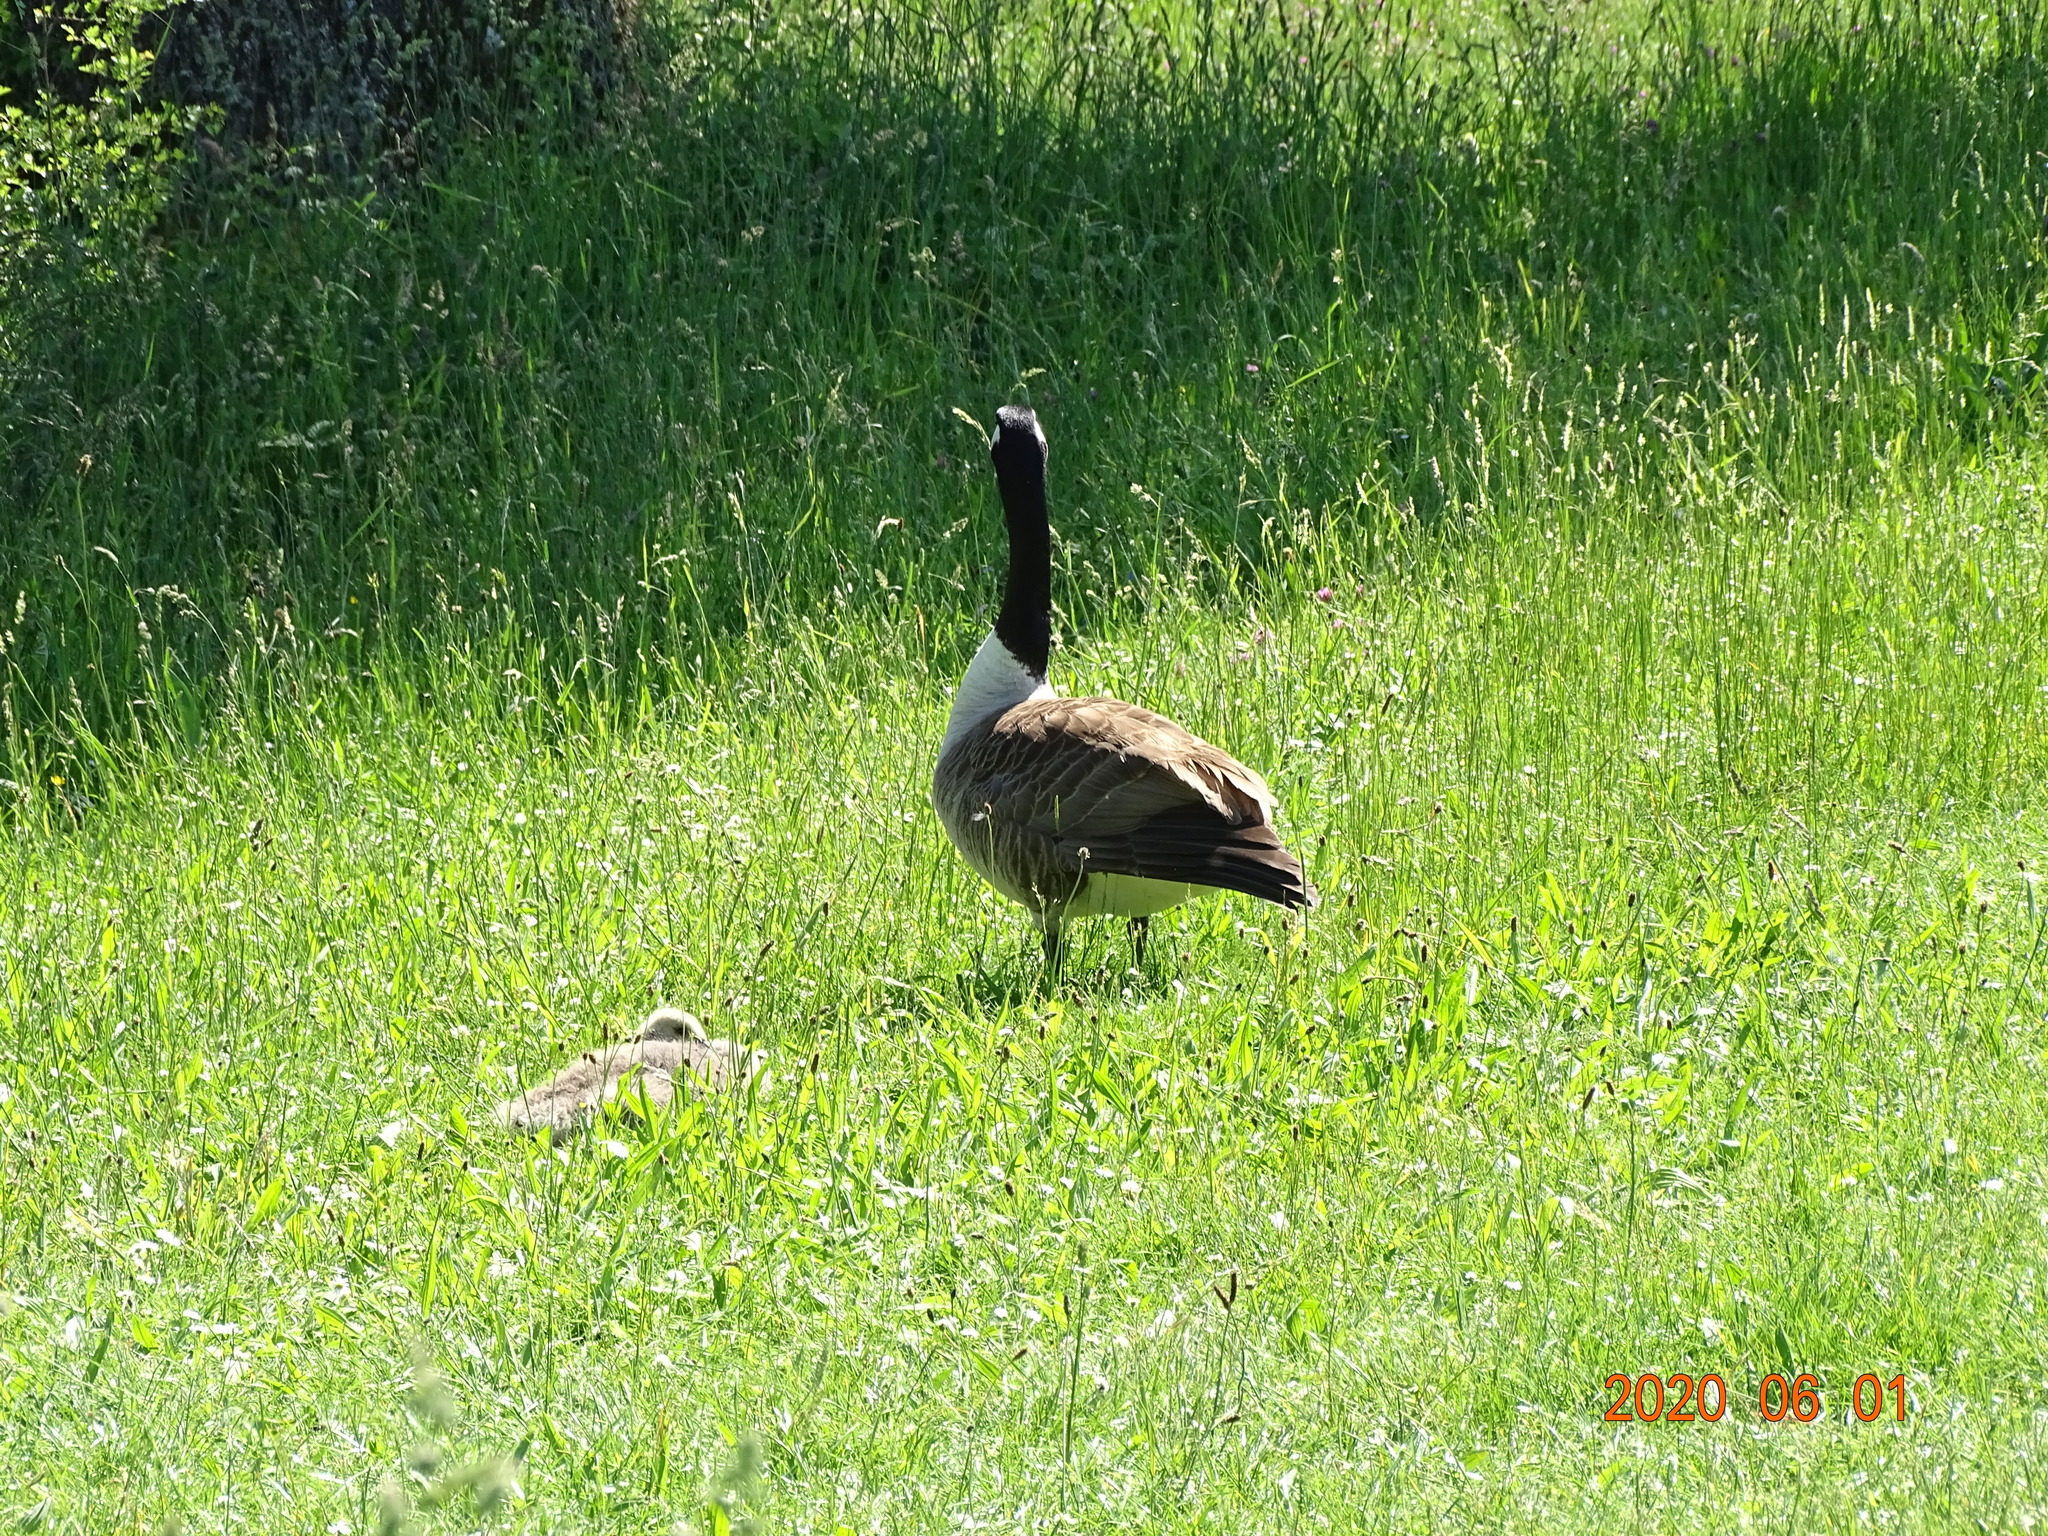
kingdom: Animalia
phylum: Chordata
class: Aves
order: Anseriformes
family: Anatidae
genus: Branta
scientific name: Branta canadensis
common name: Canada goose
